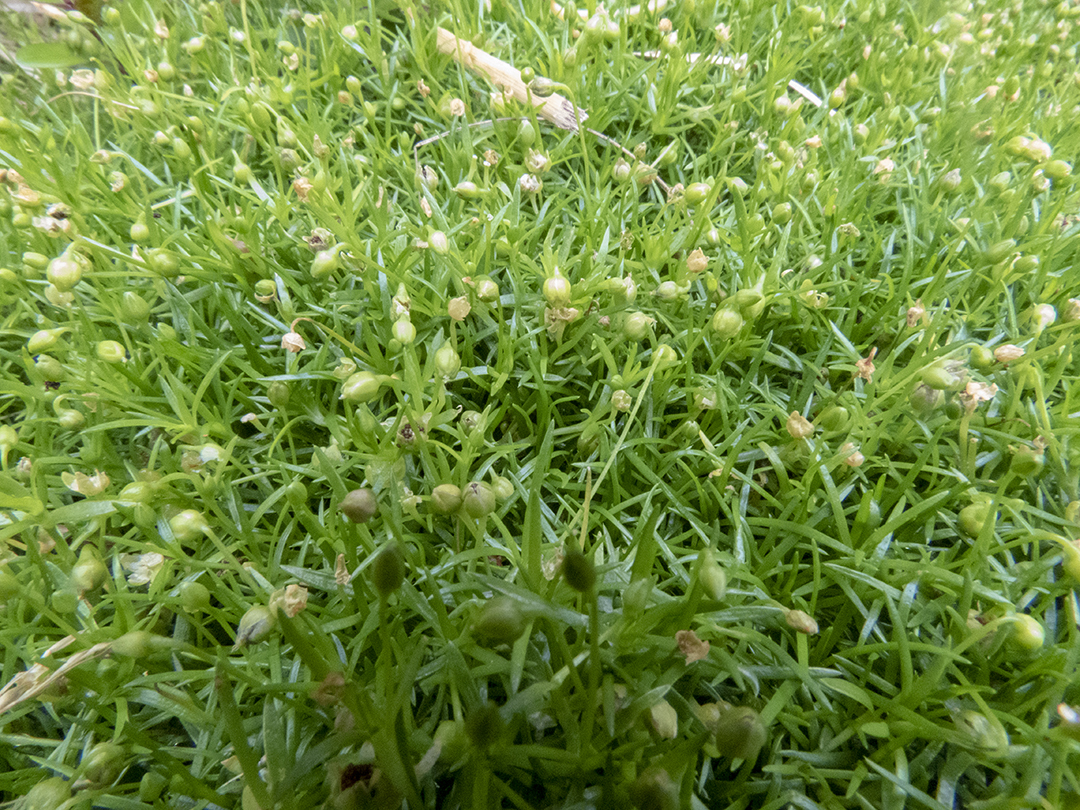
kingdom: Plantae
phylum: Tracheophyta
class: Magnoliopsida
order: Caryophyllales
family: Caryophyllaceae
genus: Sagina
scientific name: Sagina procumbens
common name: Procumbent pearlwort
